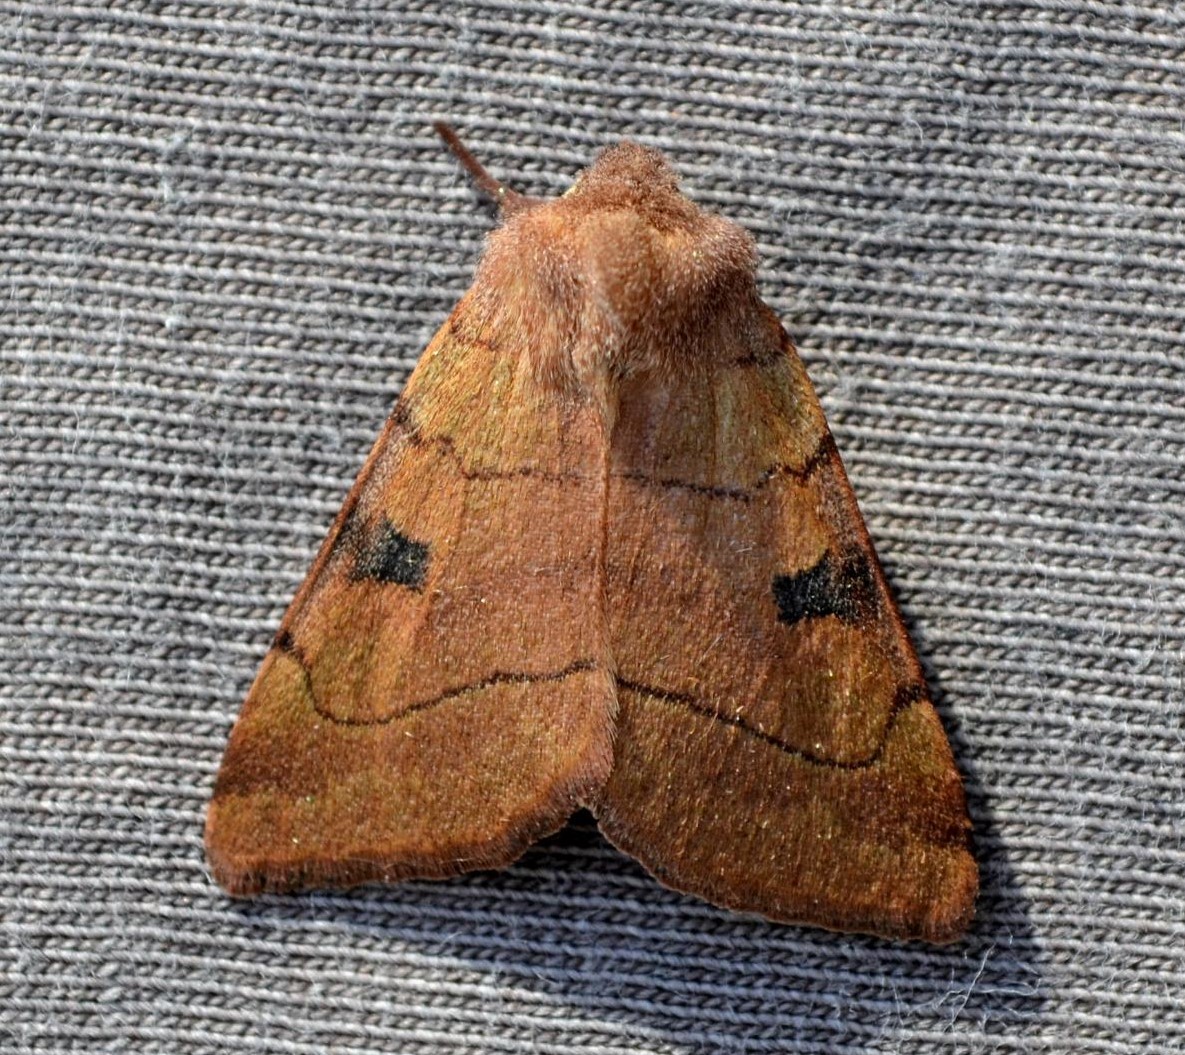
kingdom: Animalia
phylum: Arthropoda
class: Insecta
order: Lepidoptera
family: Noctuidae
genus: Choephora
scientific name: Choephora fungorum
